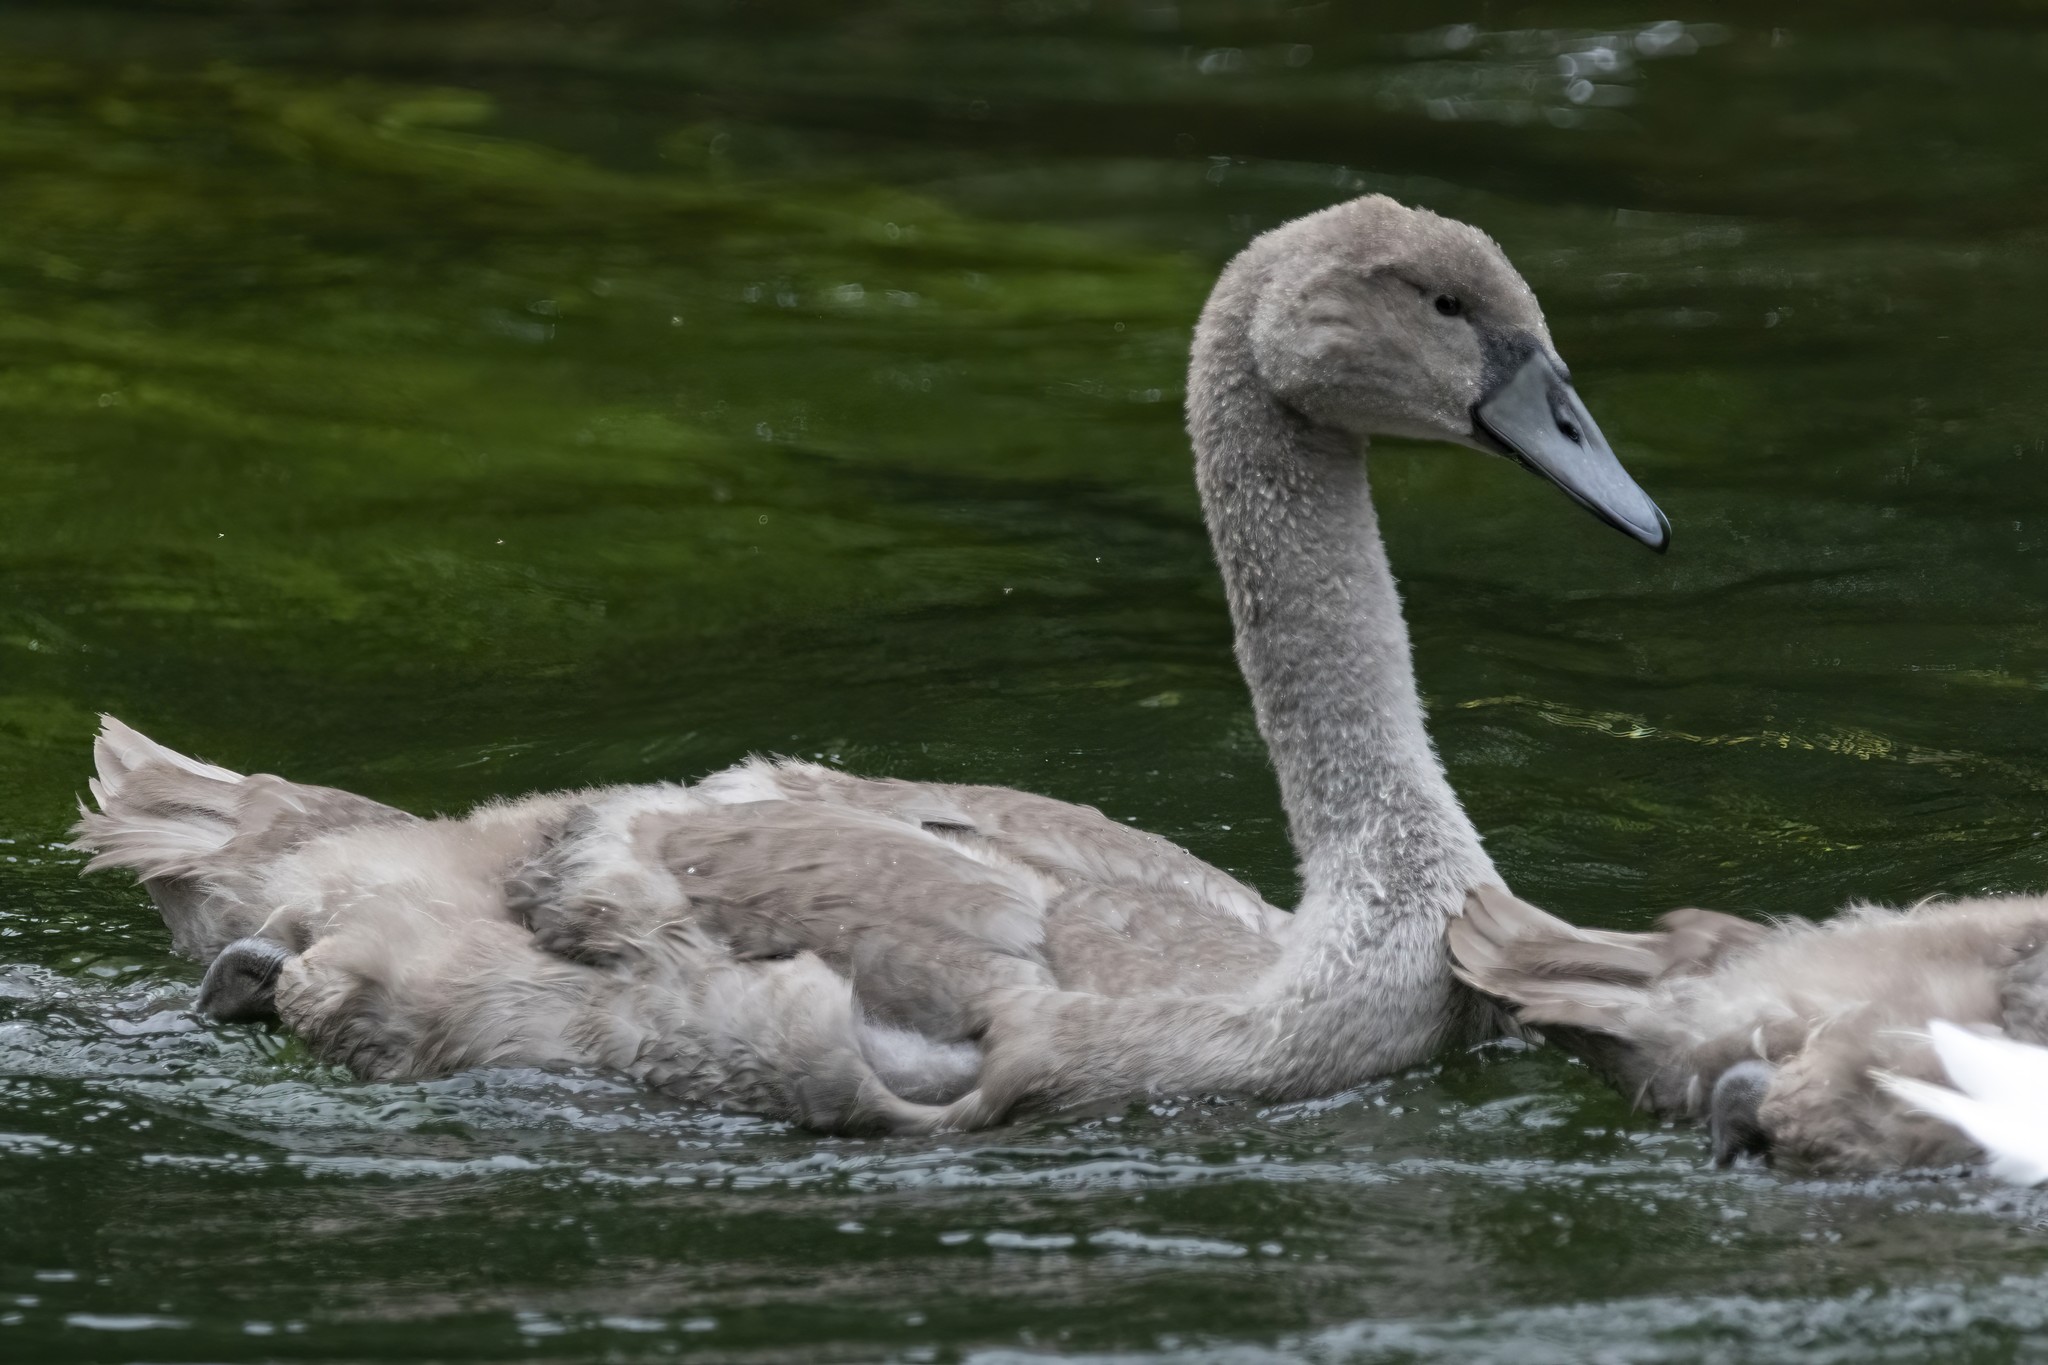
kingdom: Animalia
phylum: Chordata
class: Aves
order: Anseriformes
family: Anatidae
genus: Cygnus
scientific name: Cygnus olor
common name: Mute swan
